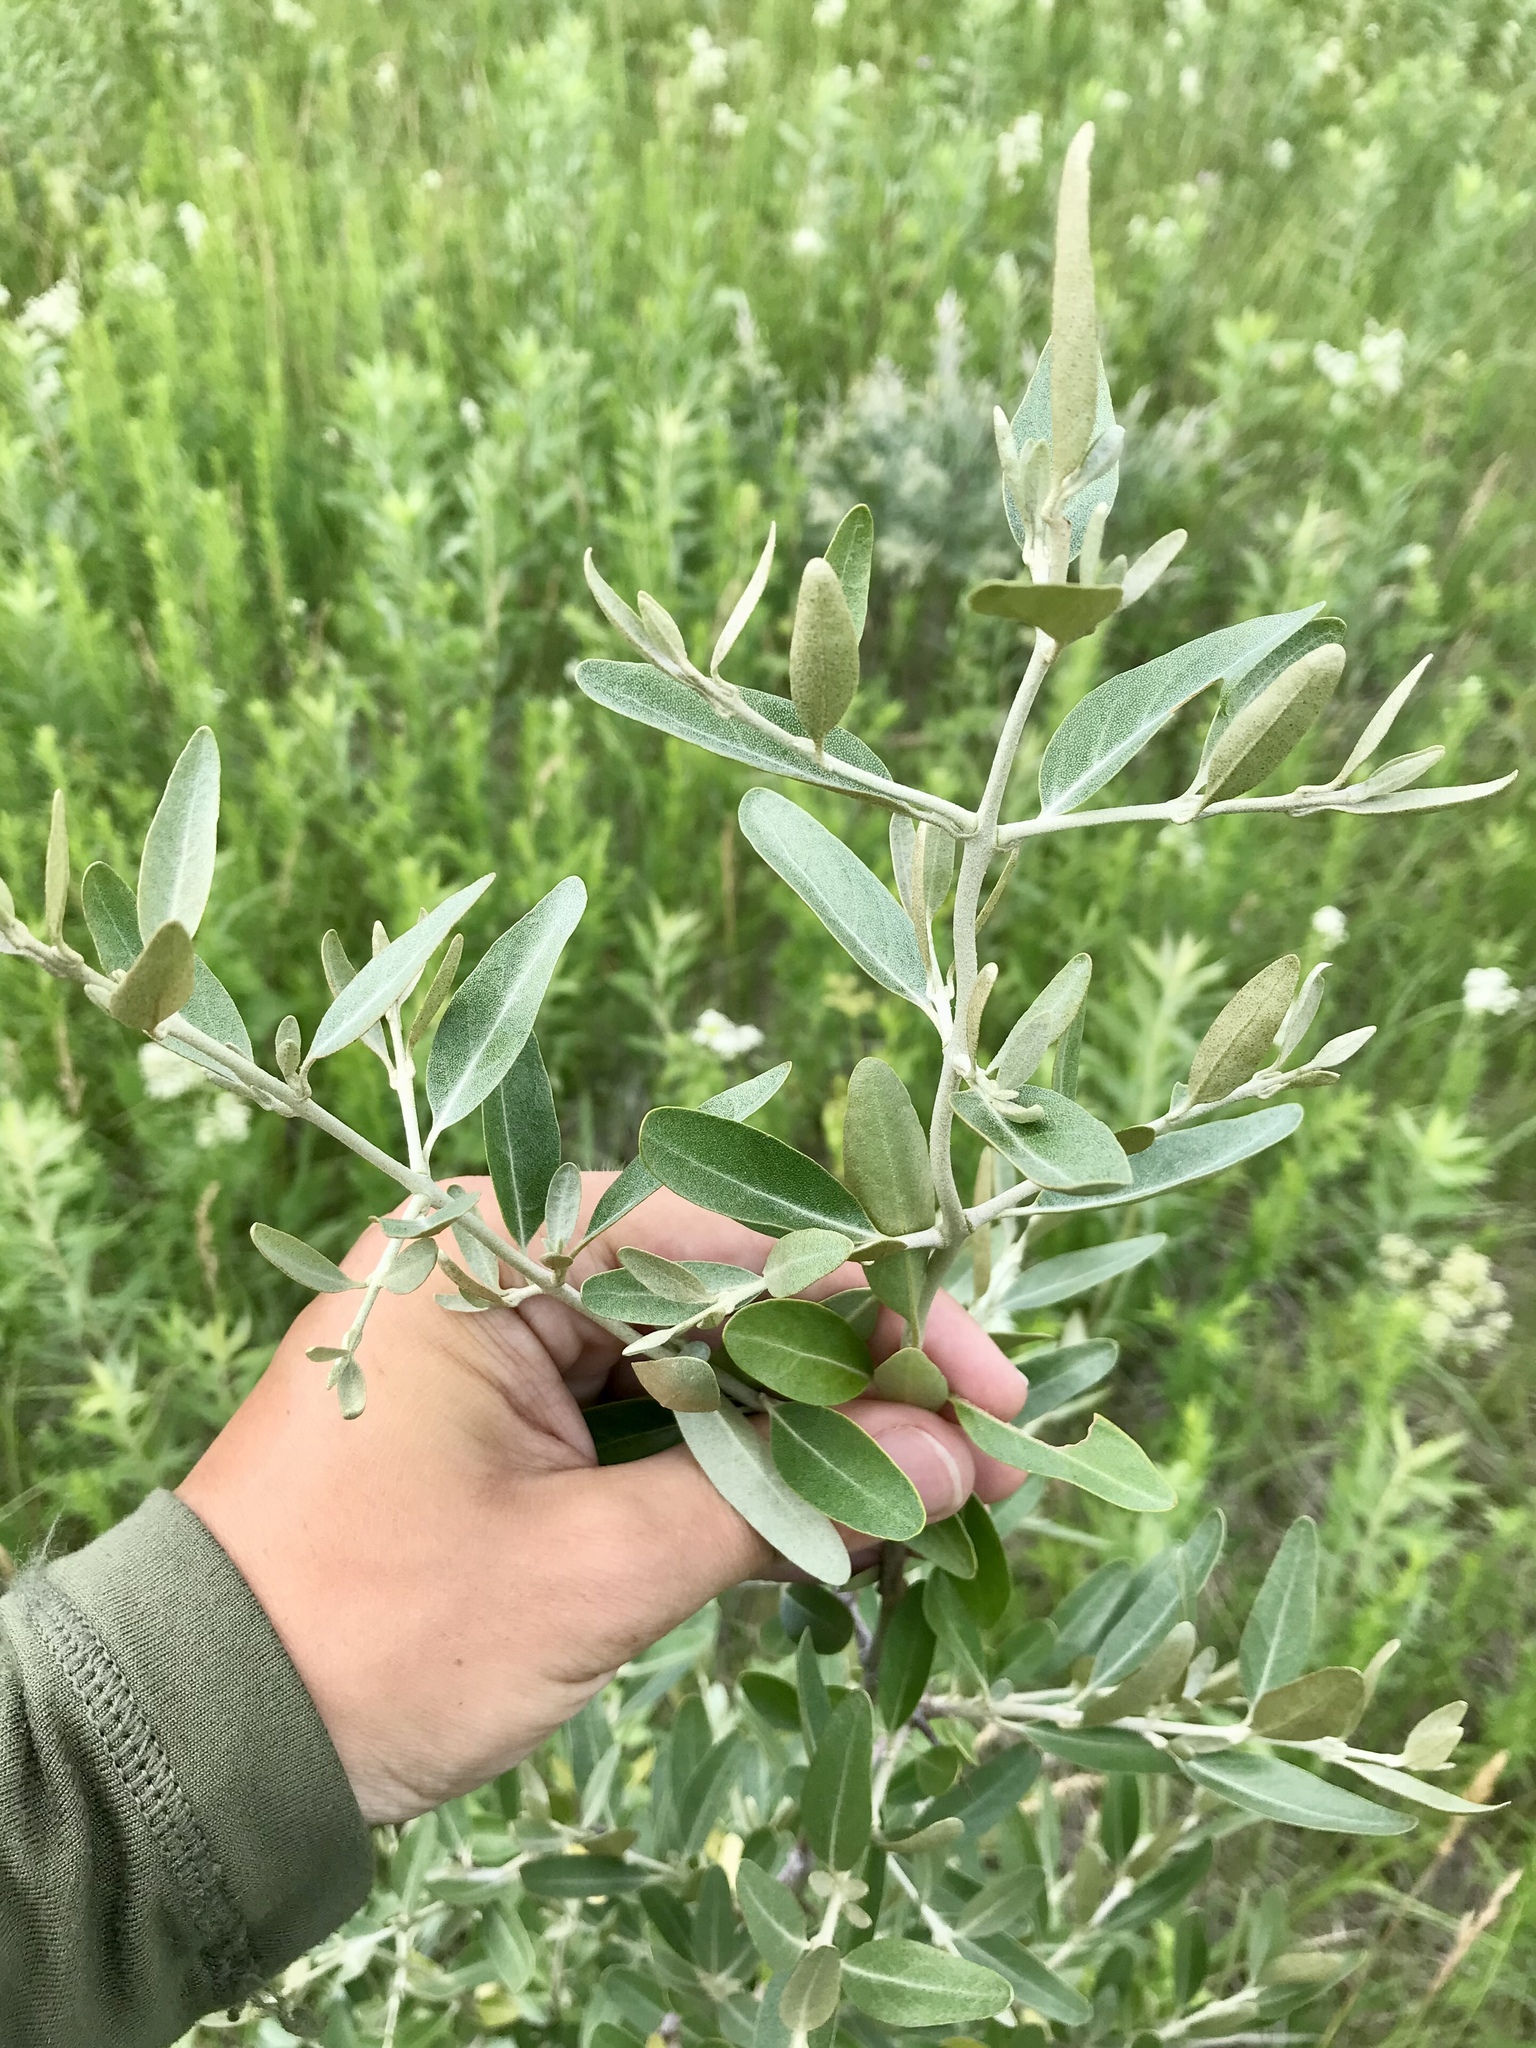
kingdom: Plantae
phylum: Tracheophyta
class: Magnoliopsida
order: Rosales
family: Elaeagnaceae
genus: Shepherdia
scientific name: Shepherdia argentea
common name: Silver buffaloberry
